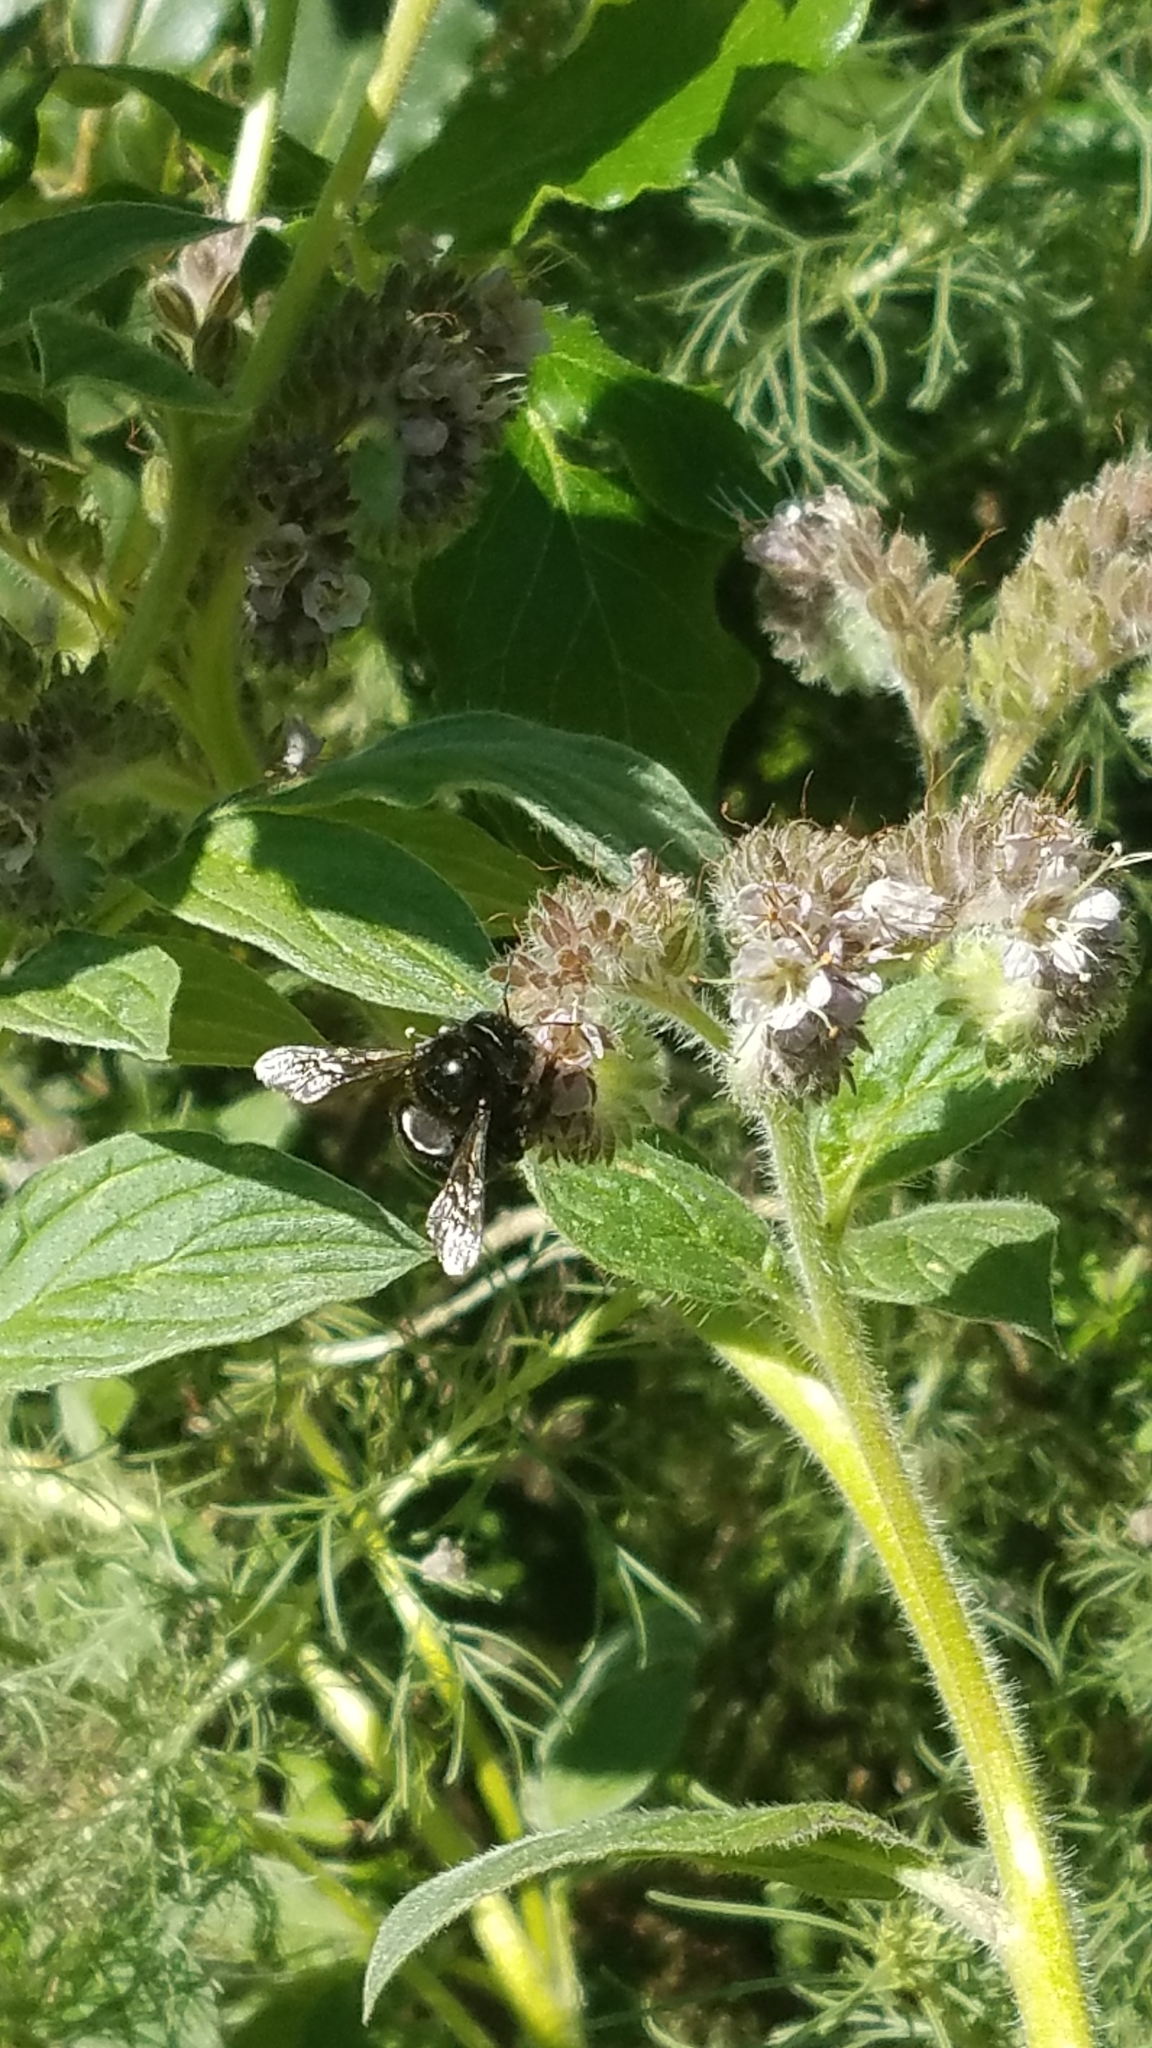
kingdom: Animalia
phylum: Arthropoda
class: Insecta
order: Hymenoptera
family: Apidae
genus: Xylocopa
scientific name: Xylocopa tabaniformis
